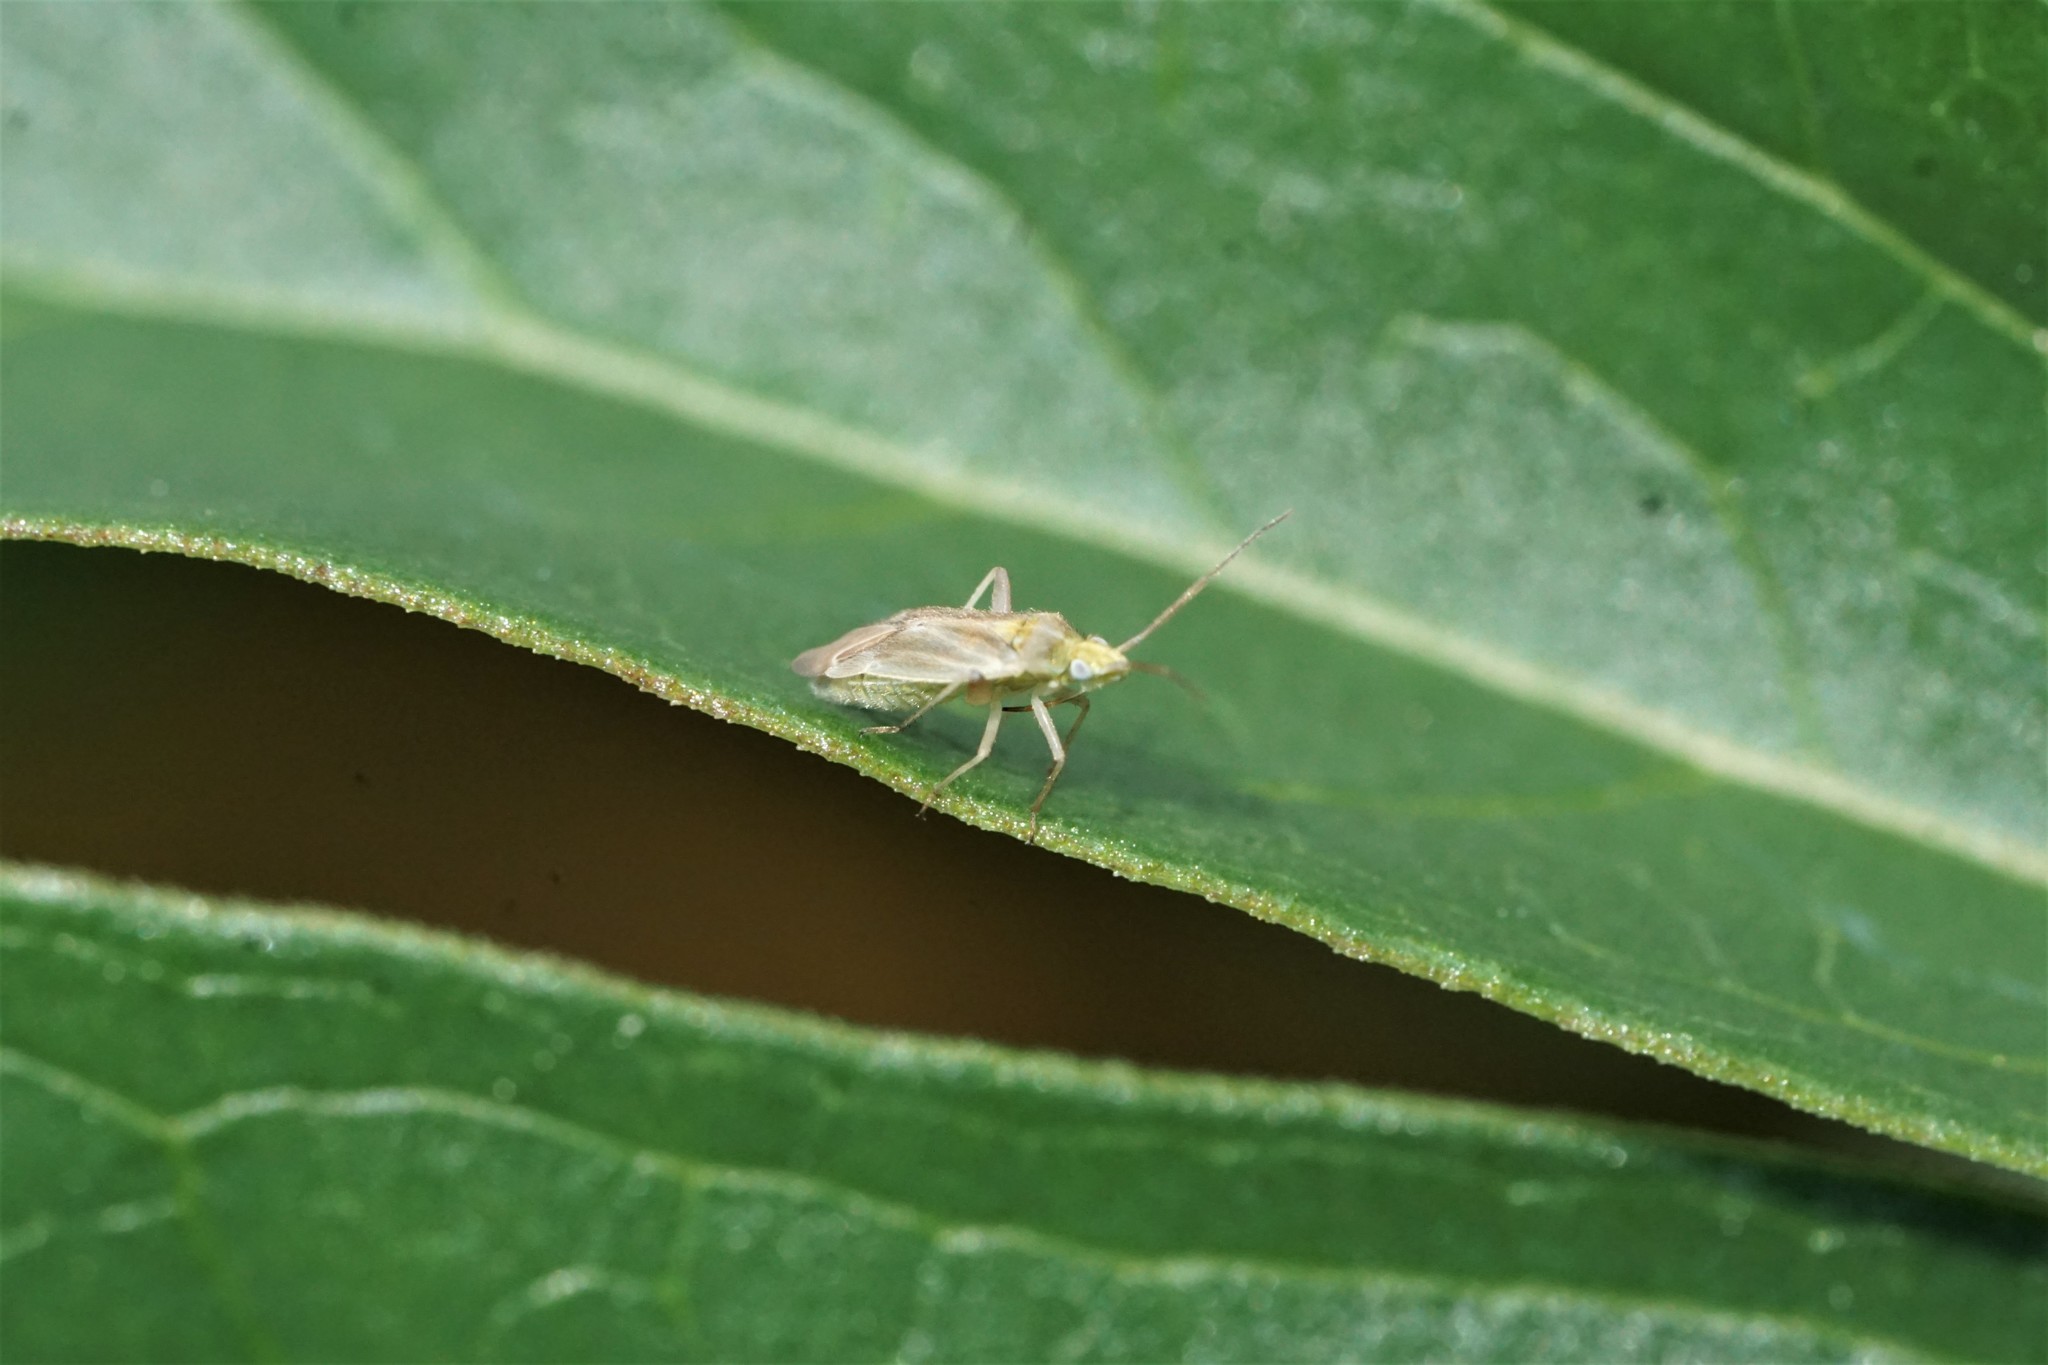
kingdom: Animalia
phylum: Arthropoda
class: Insecta
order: Hemiptera
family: Miridae
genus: Amblytylus
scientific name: Amblytylus nasutus
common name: Plant bug
